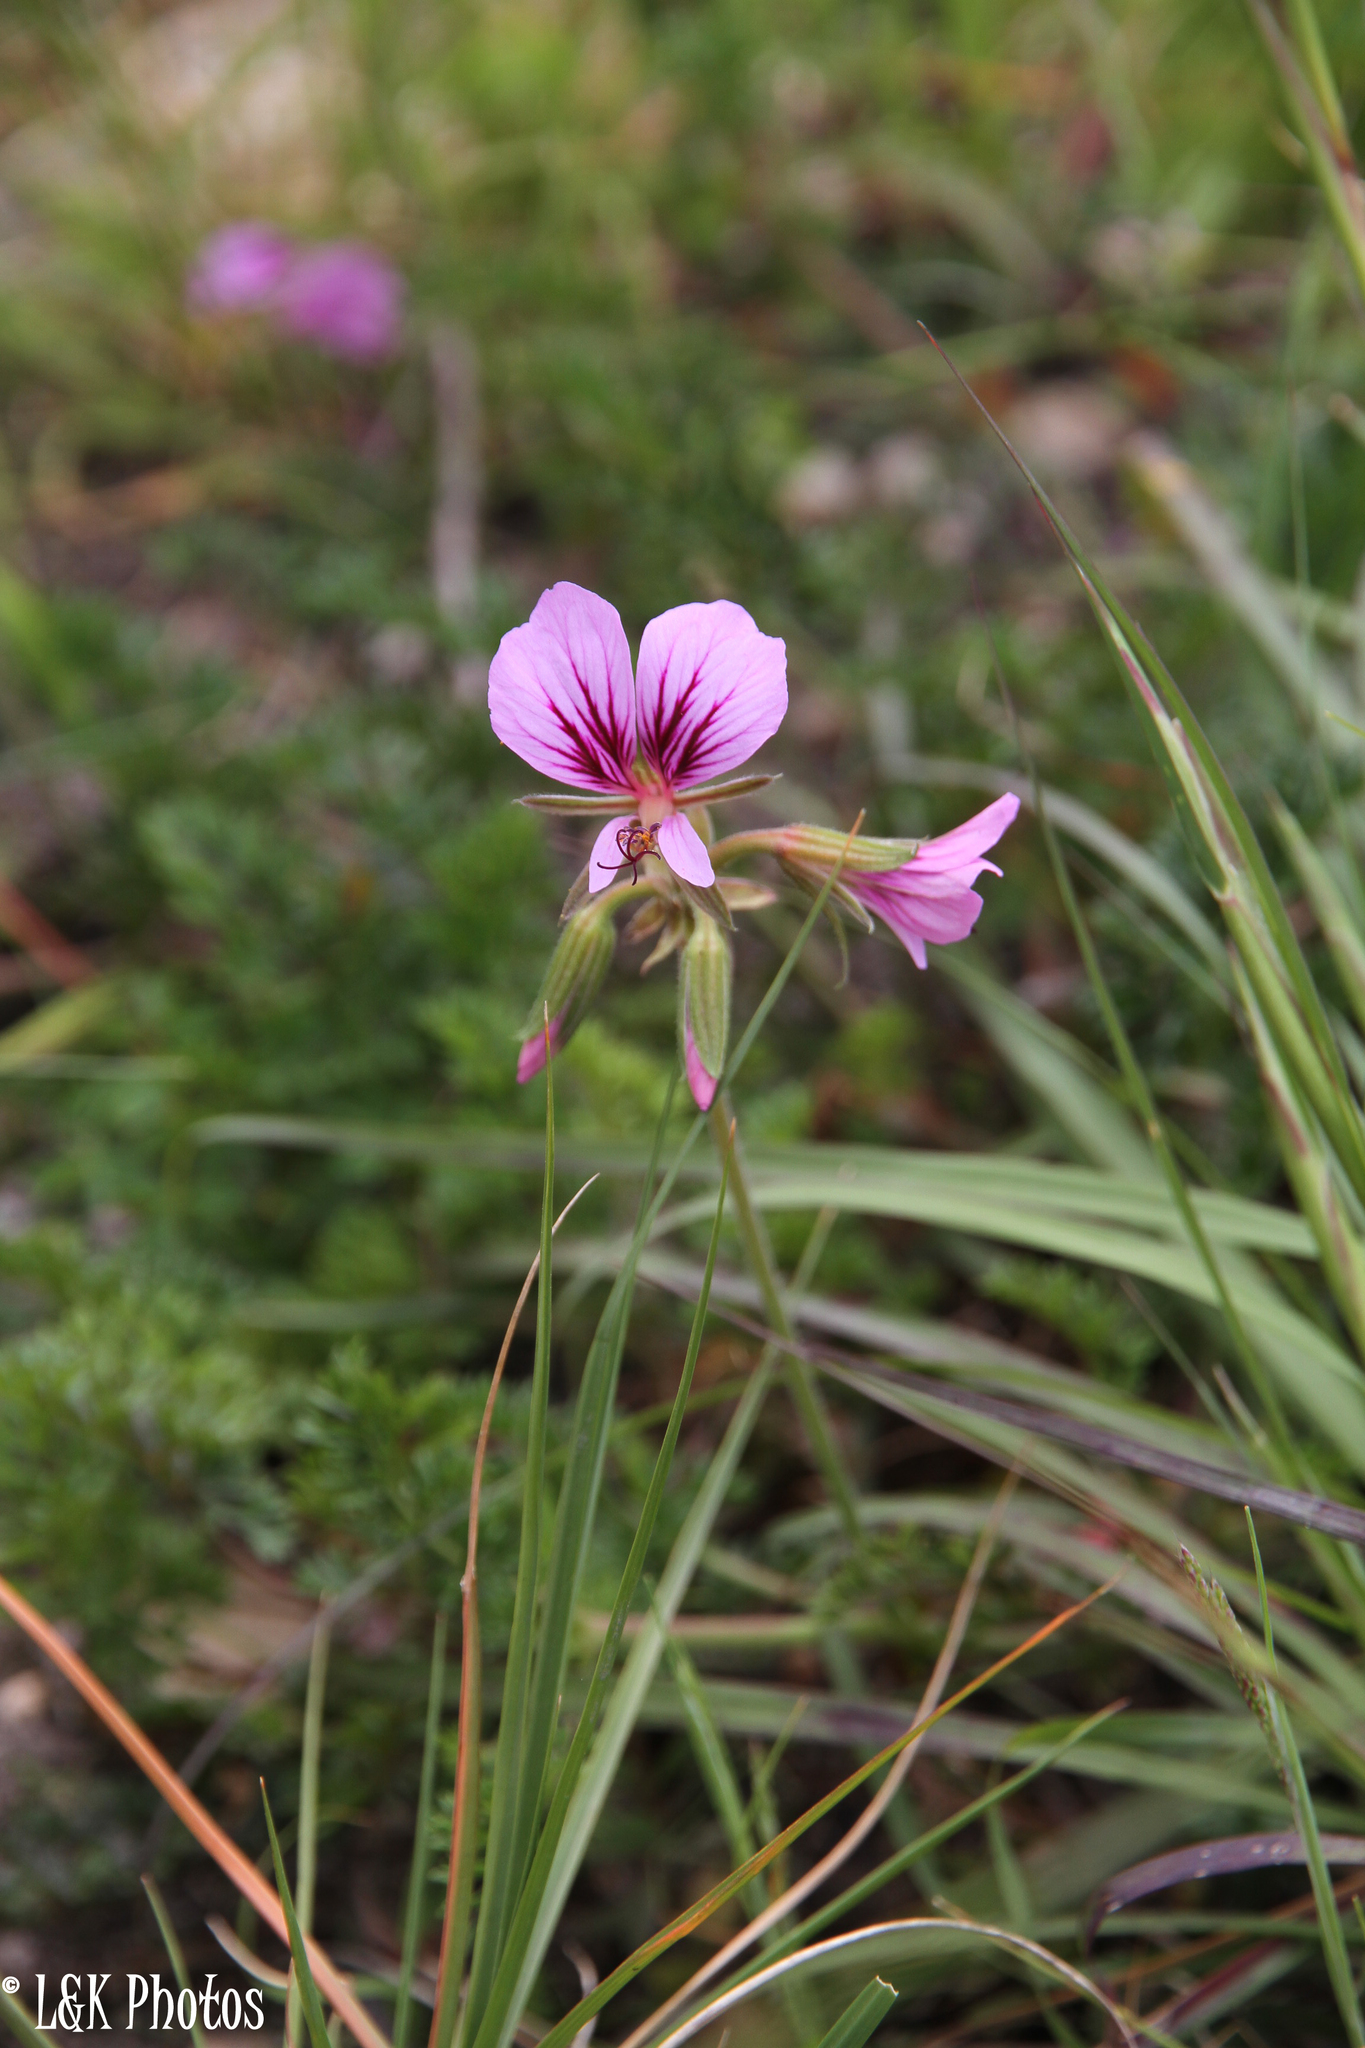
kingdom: Plantae
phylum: Tracheophyta
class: Magnoliopsida
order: Geraniales
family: Geraniaceae
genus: Pelargonium
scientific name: Pelargonium myrrhifolium
